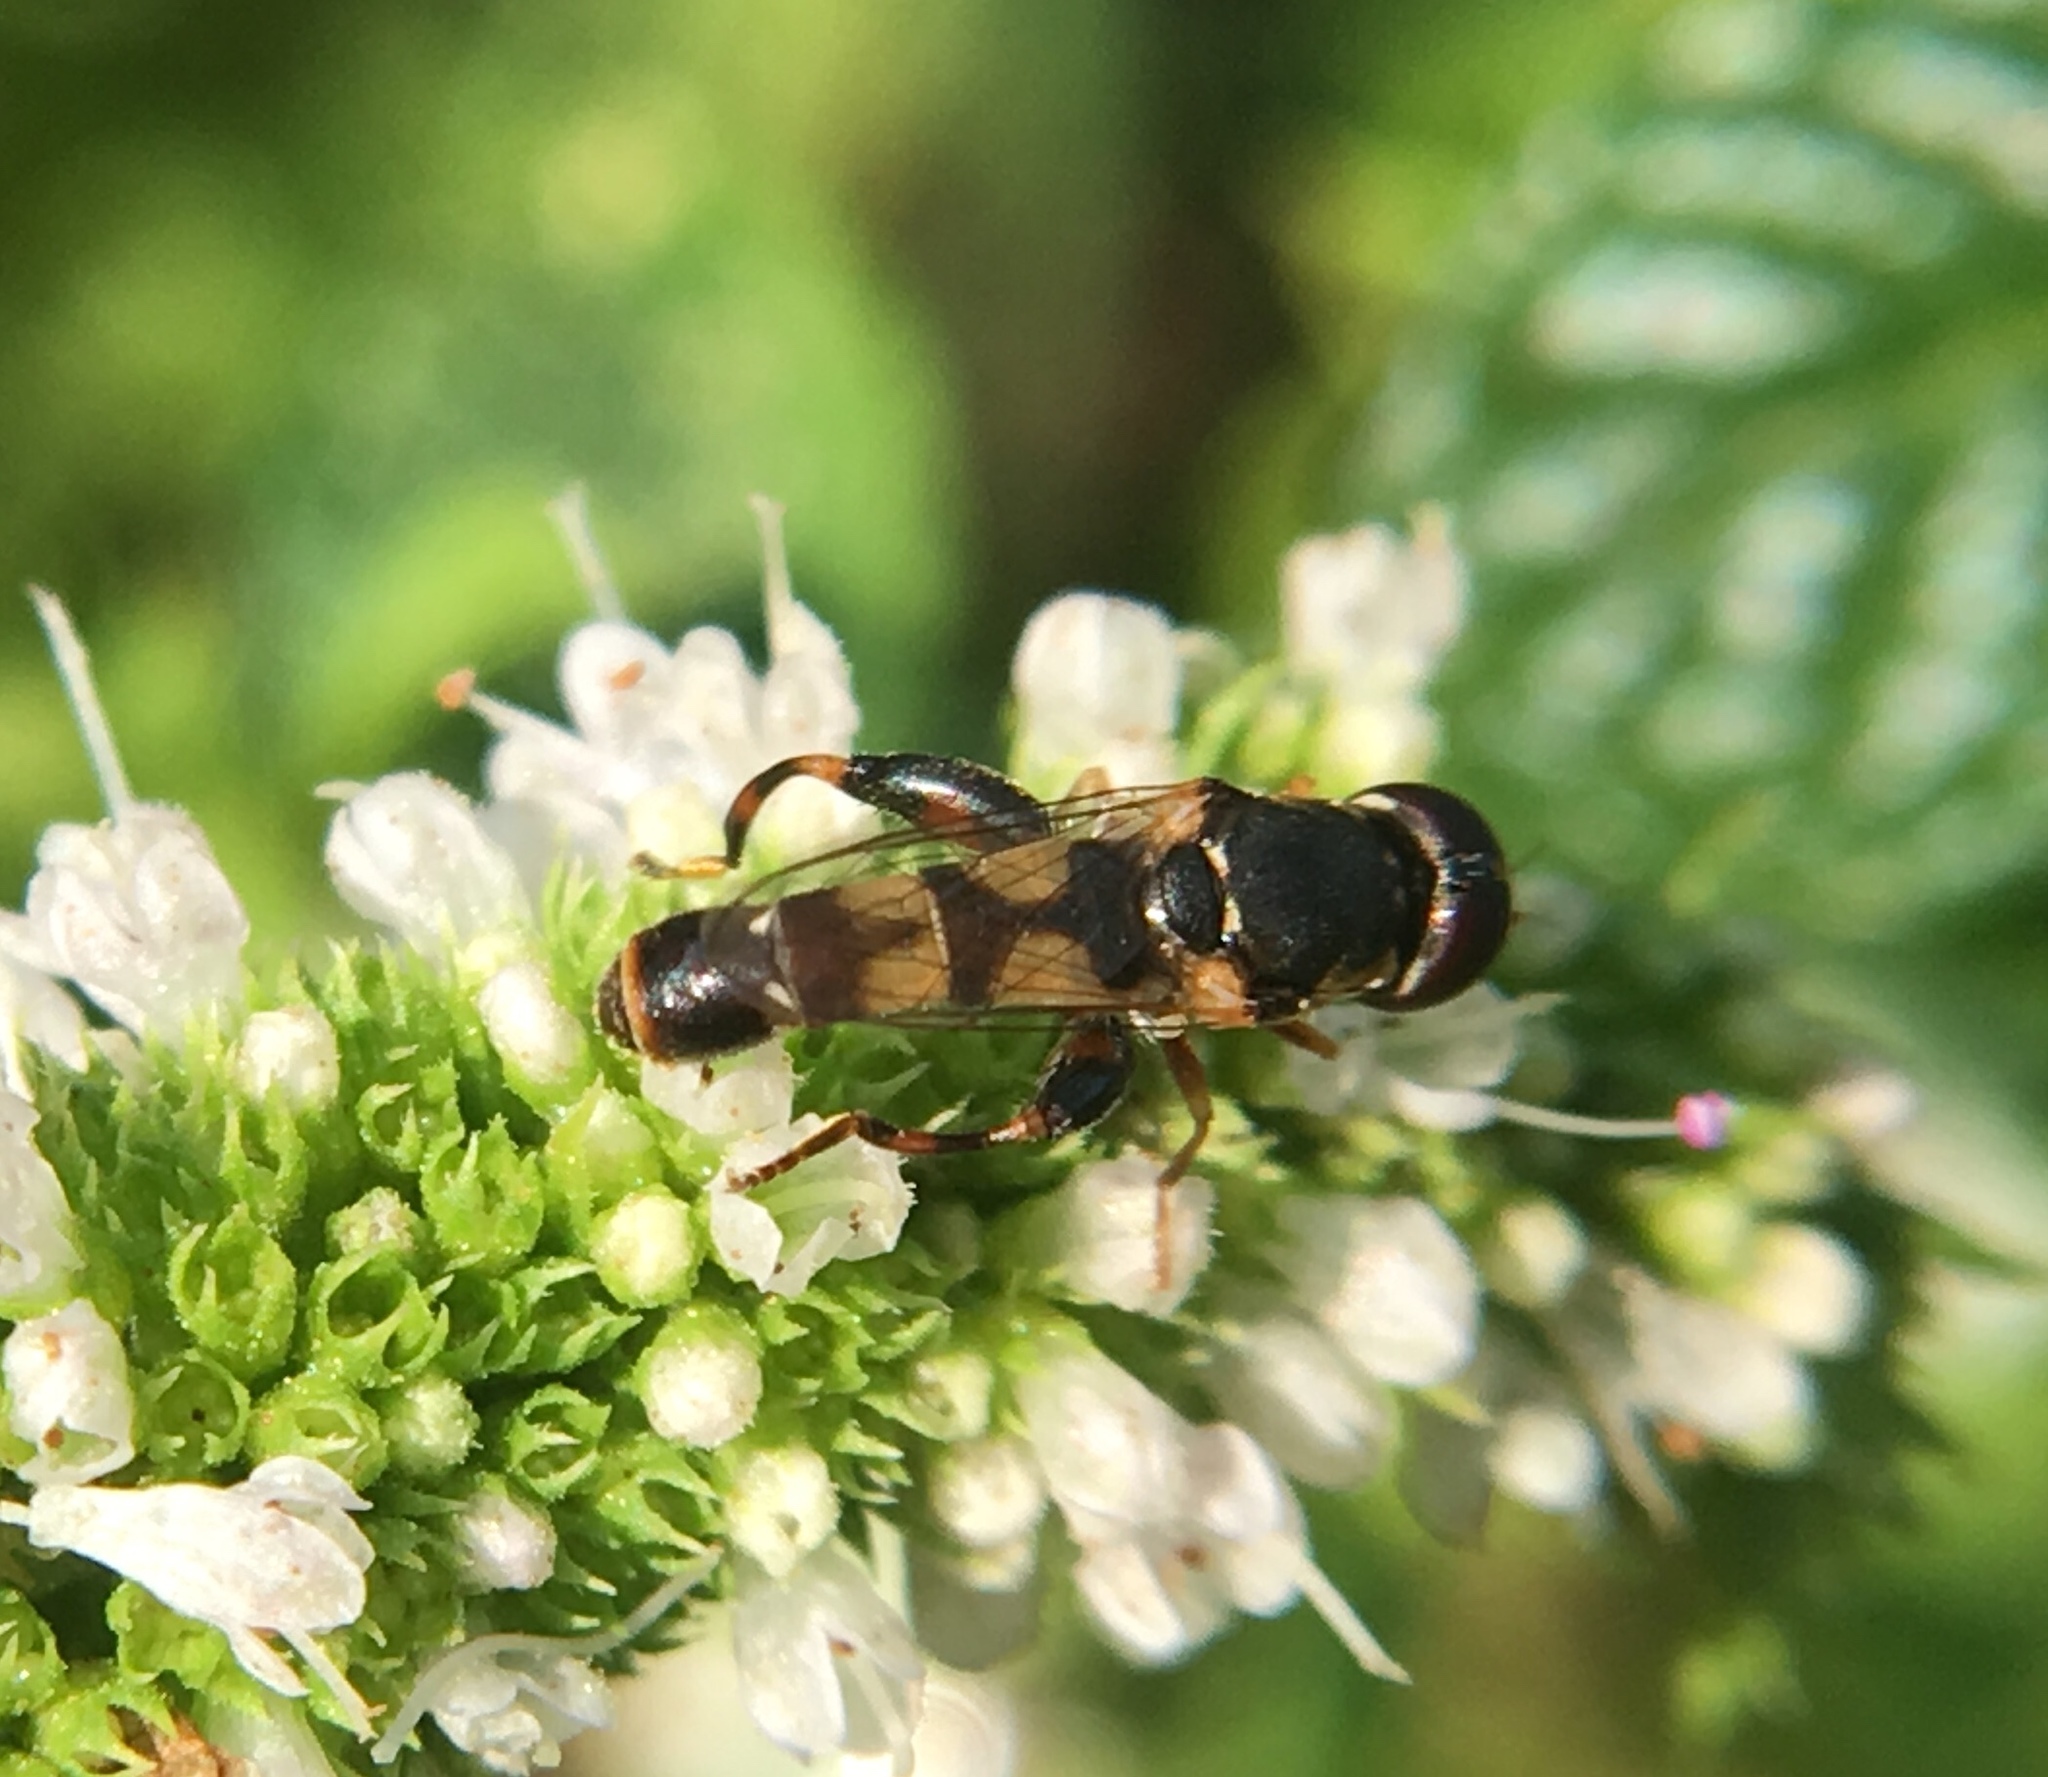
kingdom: Animalia
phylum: Arthropoda
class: Insecta
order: Diptera
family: Syrphidae
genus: Syritta
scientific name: Syritta pipiens
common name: Hover fly
